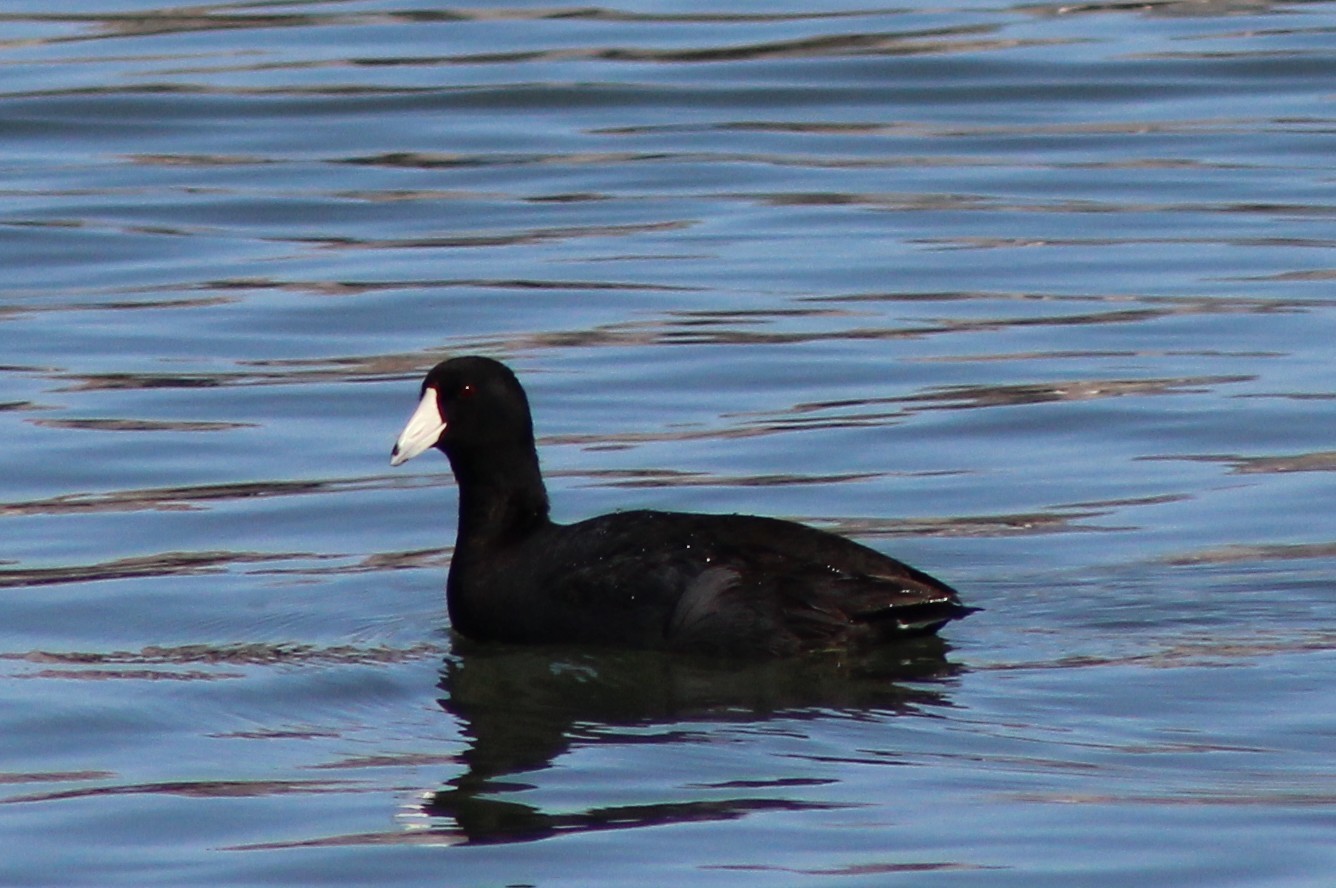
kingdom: Animalia
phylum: Chordata
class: Aves
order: Gruiformes
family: Rallidae
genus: Fulica
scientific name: Fulica americana
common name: American coot
